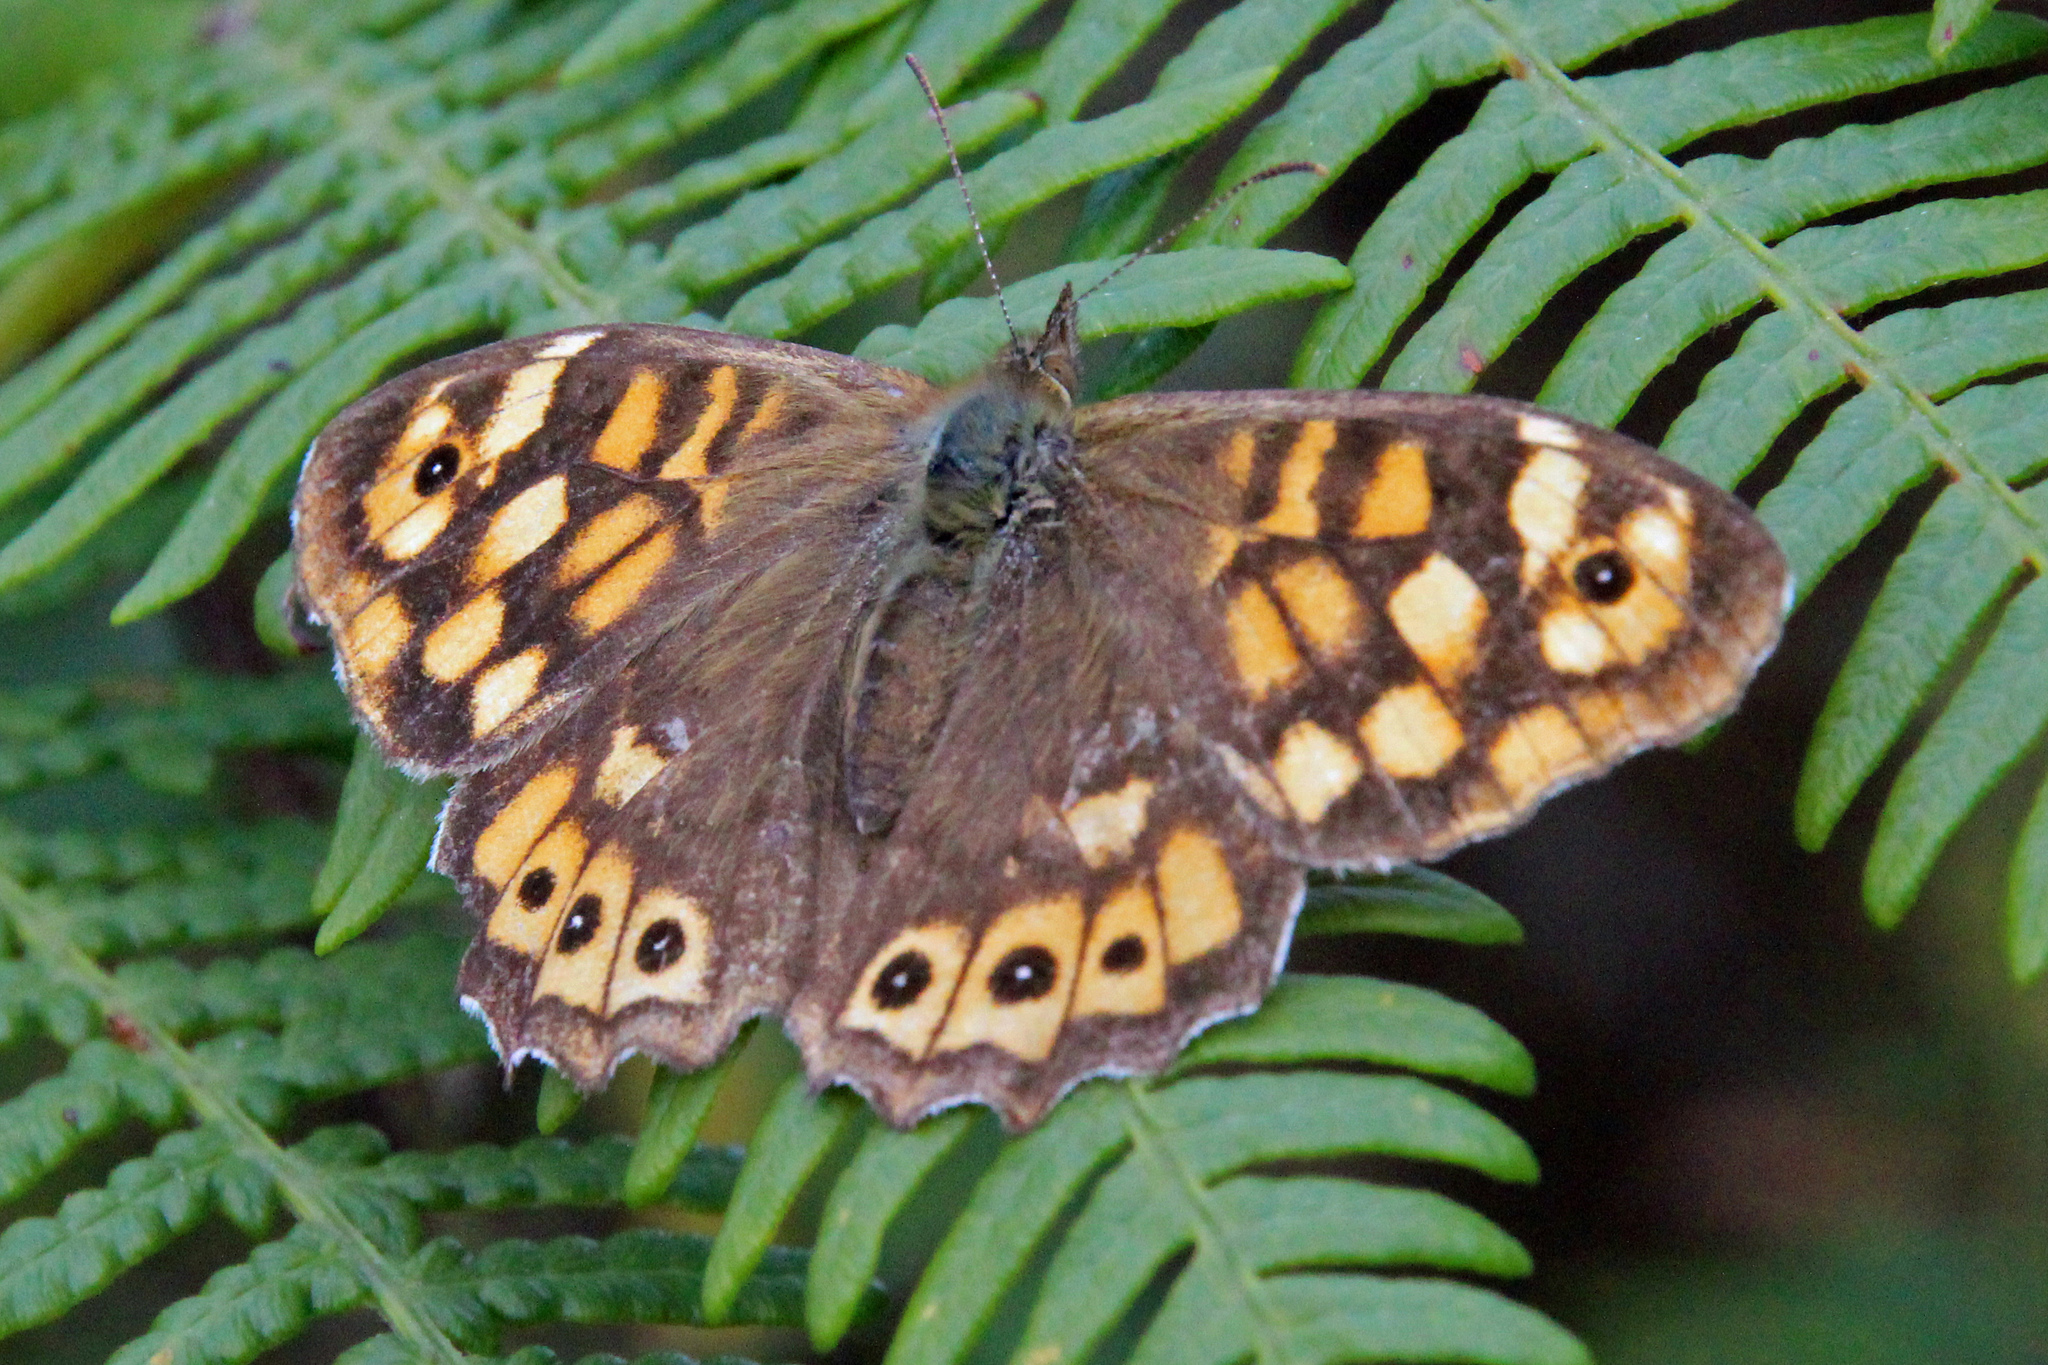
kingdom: Animalia
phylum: Arthropoda
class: Insecta
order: Lepidoptera
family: Nymphalidae
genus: Pararge
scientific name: Pararge aegeria
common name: Speckled wood
